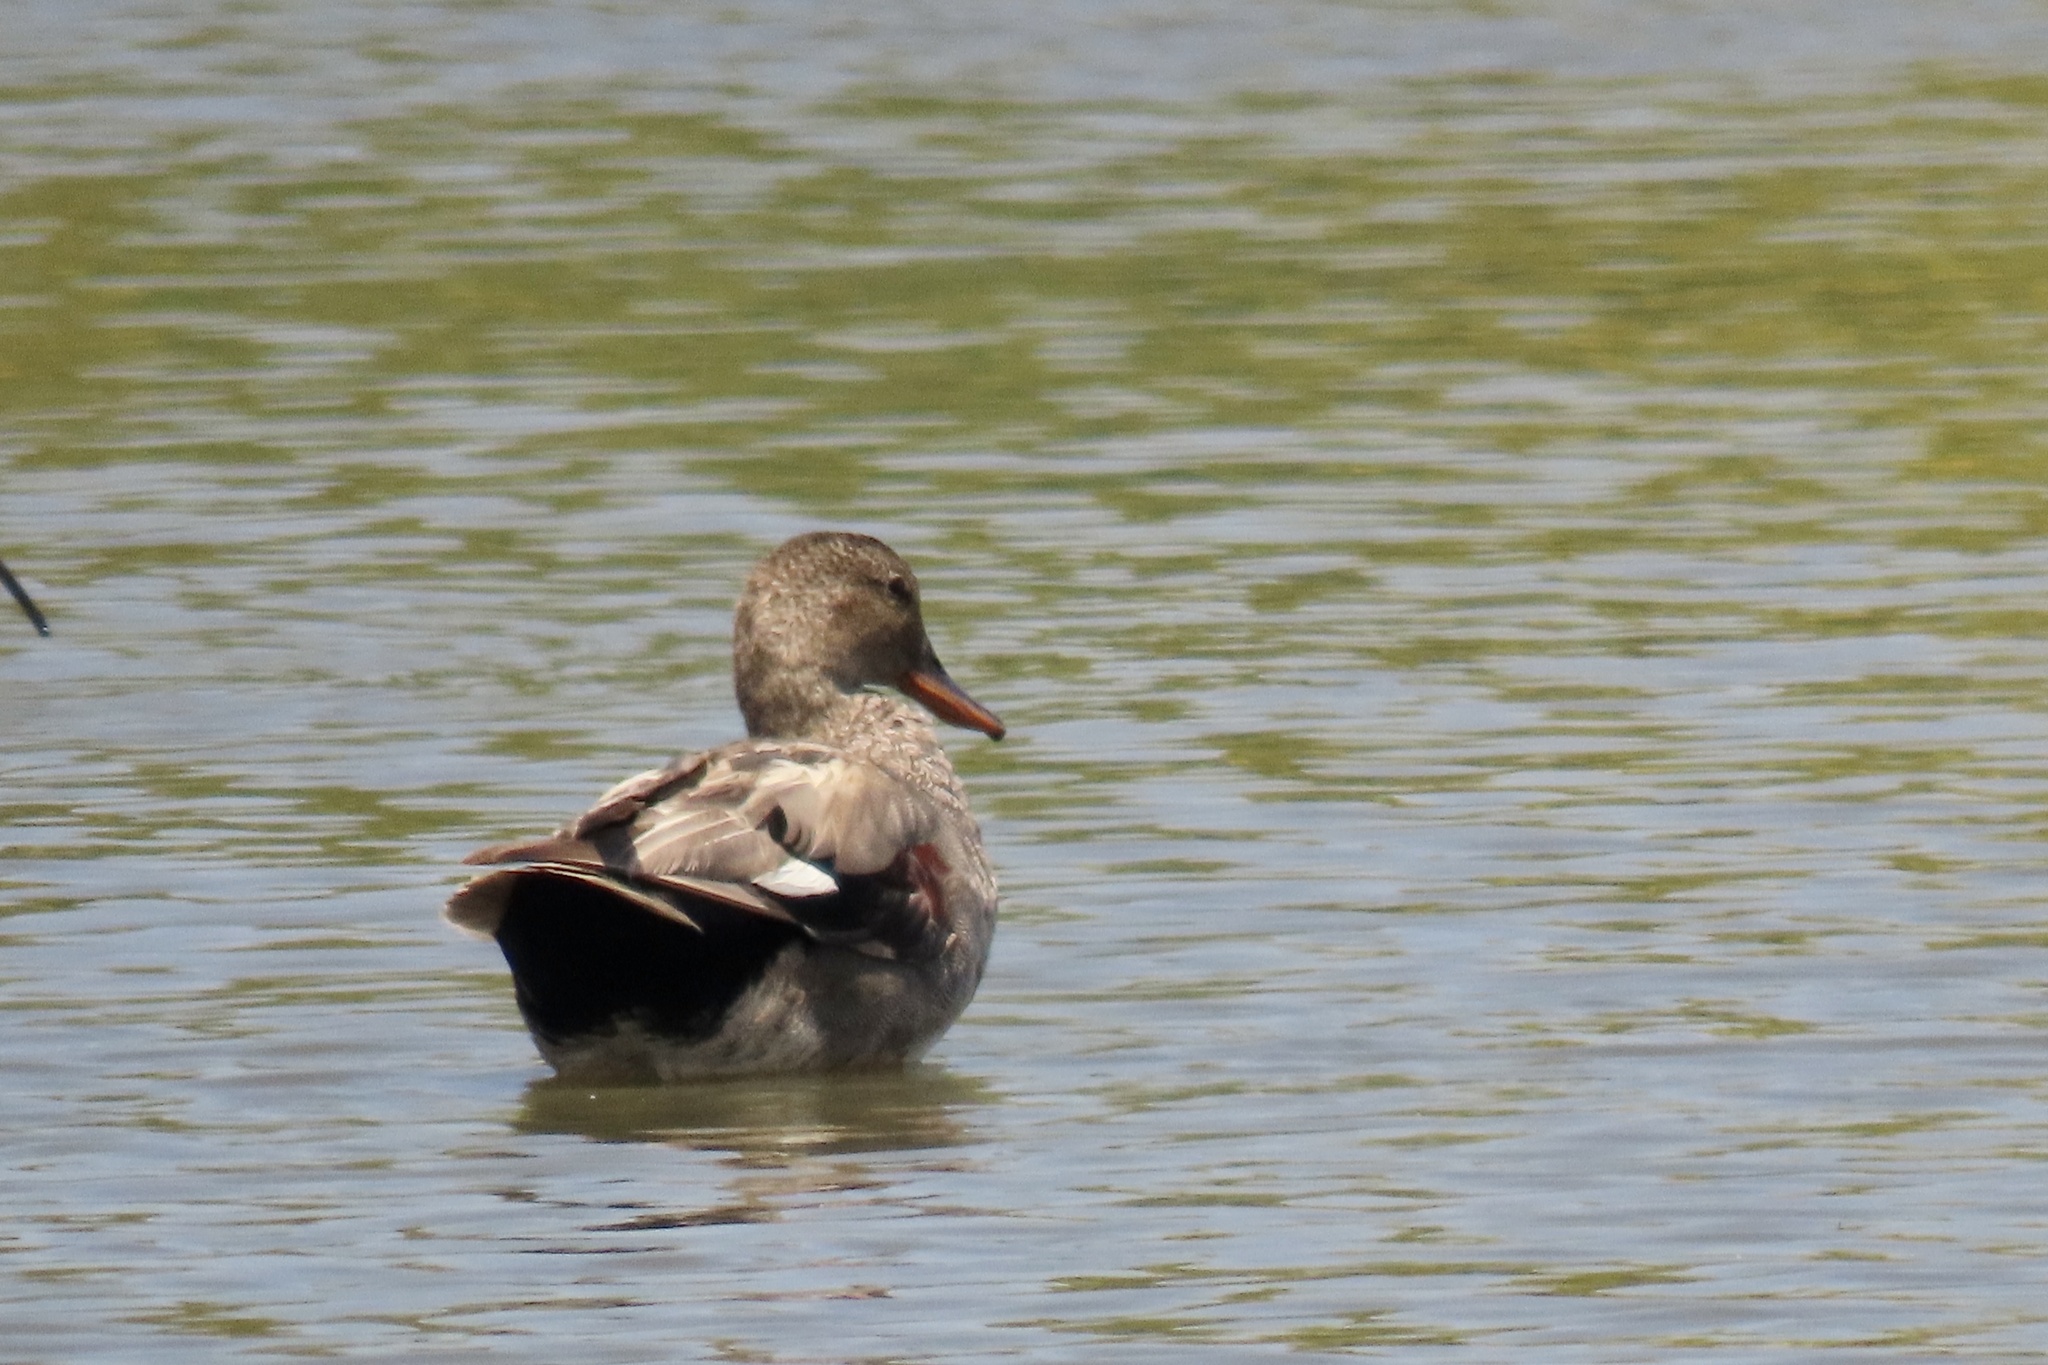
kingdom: Animalia
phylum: Chordata
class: Aves
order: Anseriformes
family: Anatidae
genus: Anas
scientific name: Anas platyrhynchos
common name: Mallard
